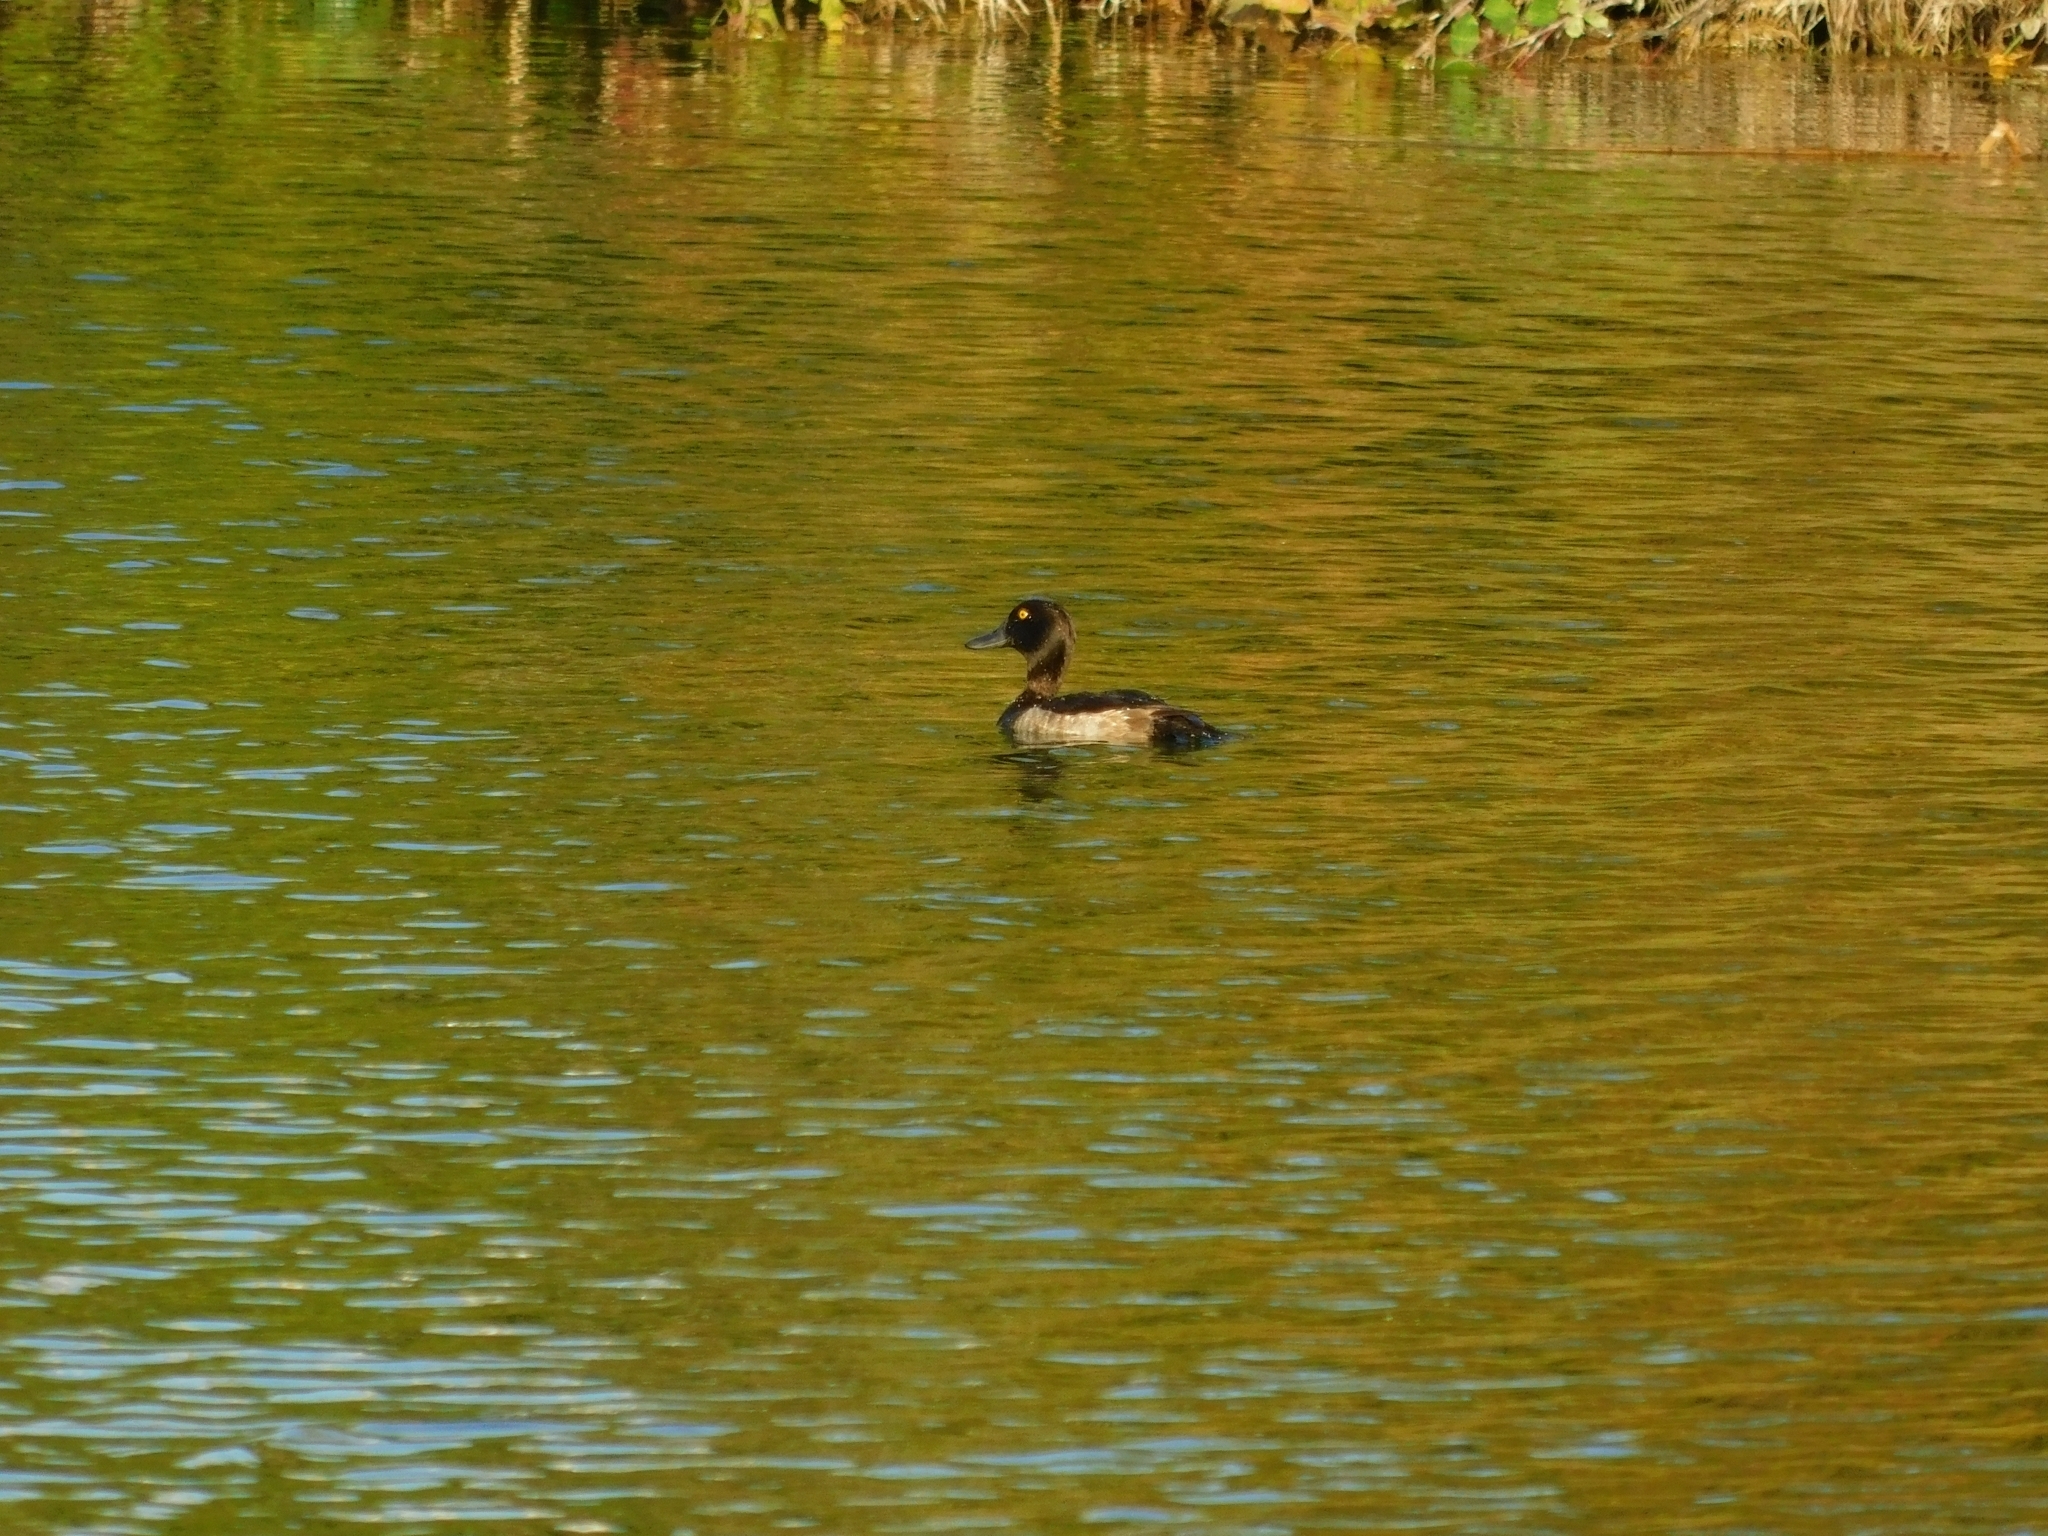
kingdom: Animalia
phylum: Chordata
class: Aves
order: Anseriformes
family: Anatidae
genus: Aythya
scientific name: Aythya fuligula
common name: Tufted duck
